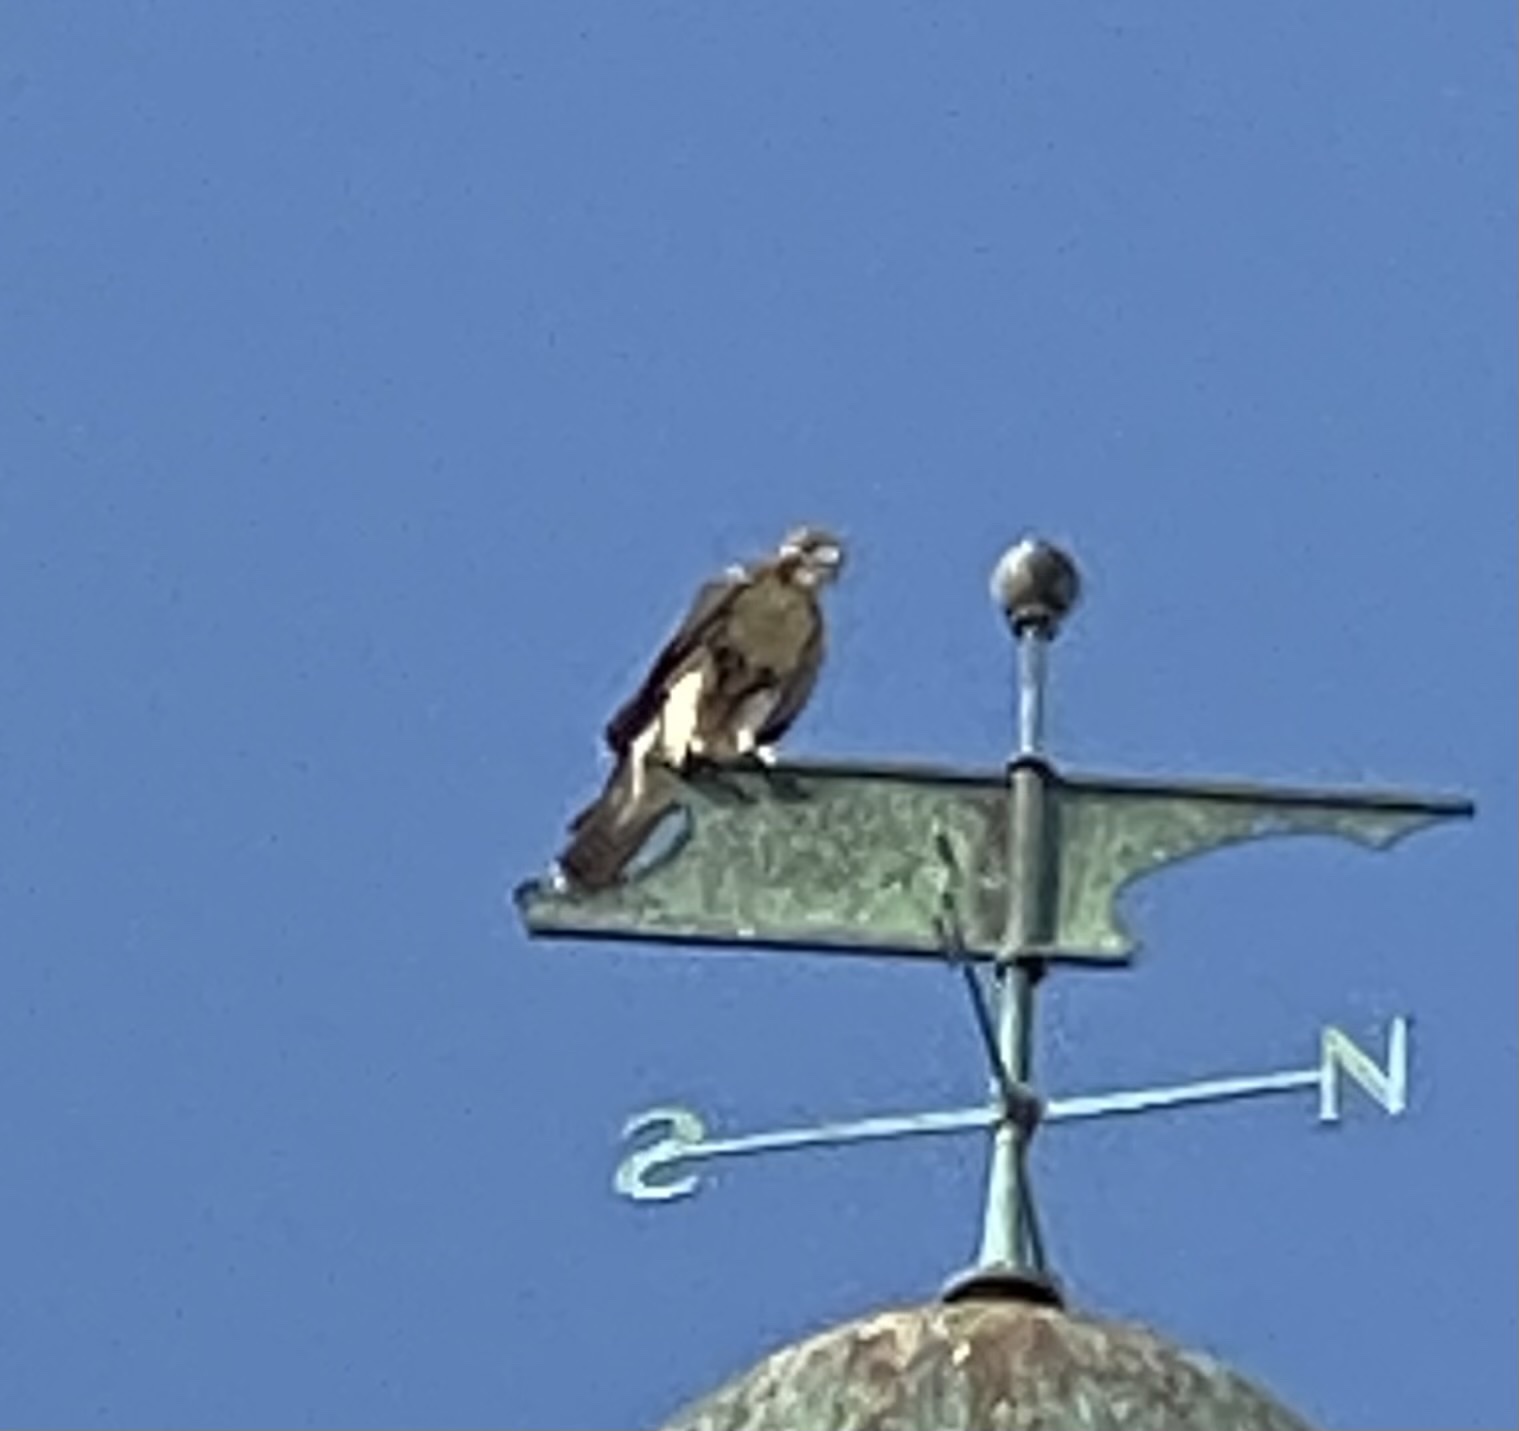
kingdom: Animalia
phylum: Chordata
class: Aves
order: Accipitriformes
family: Accipitridae
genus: Buteo
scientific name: Buteo jamaicensis
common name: Red-tailed hawk
